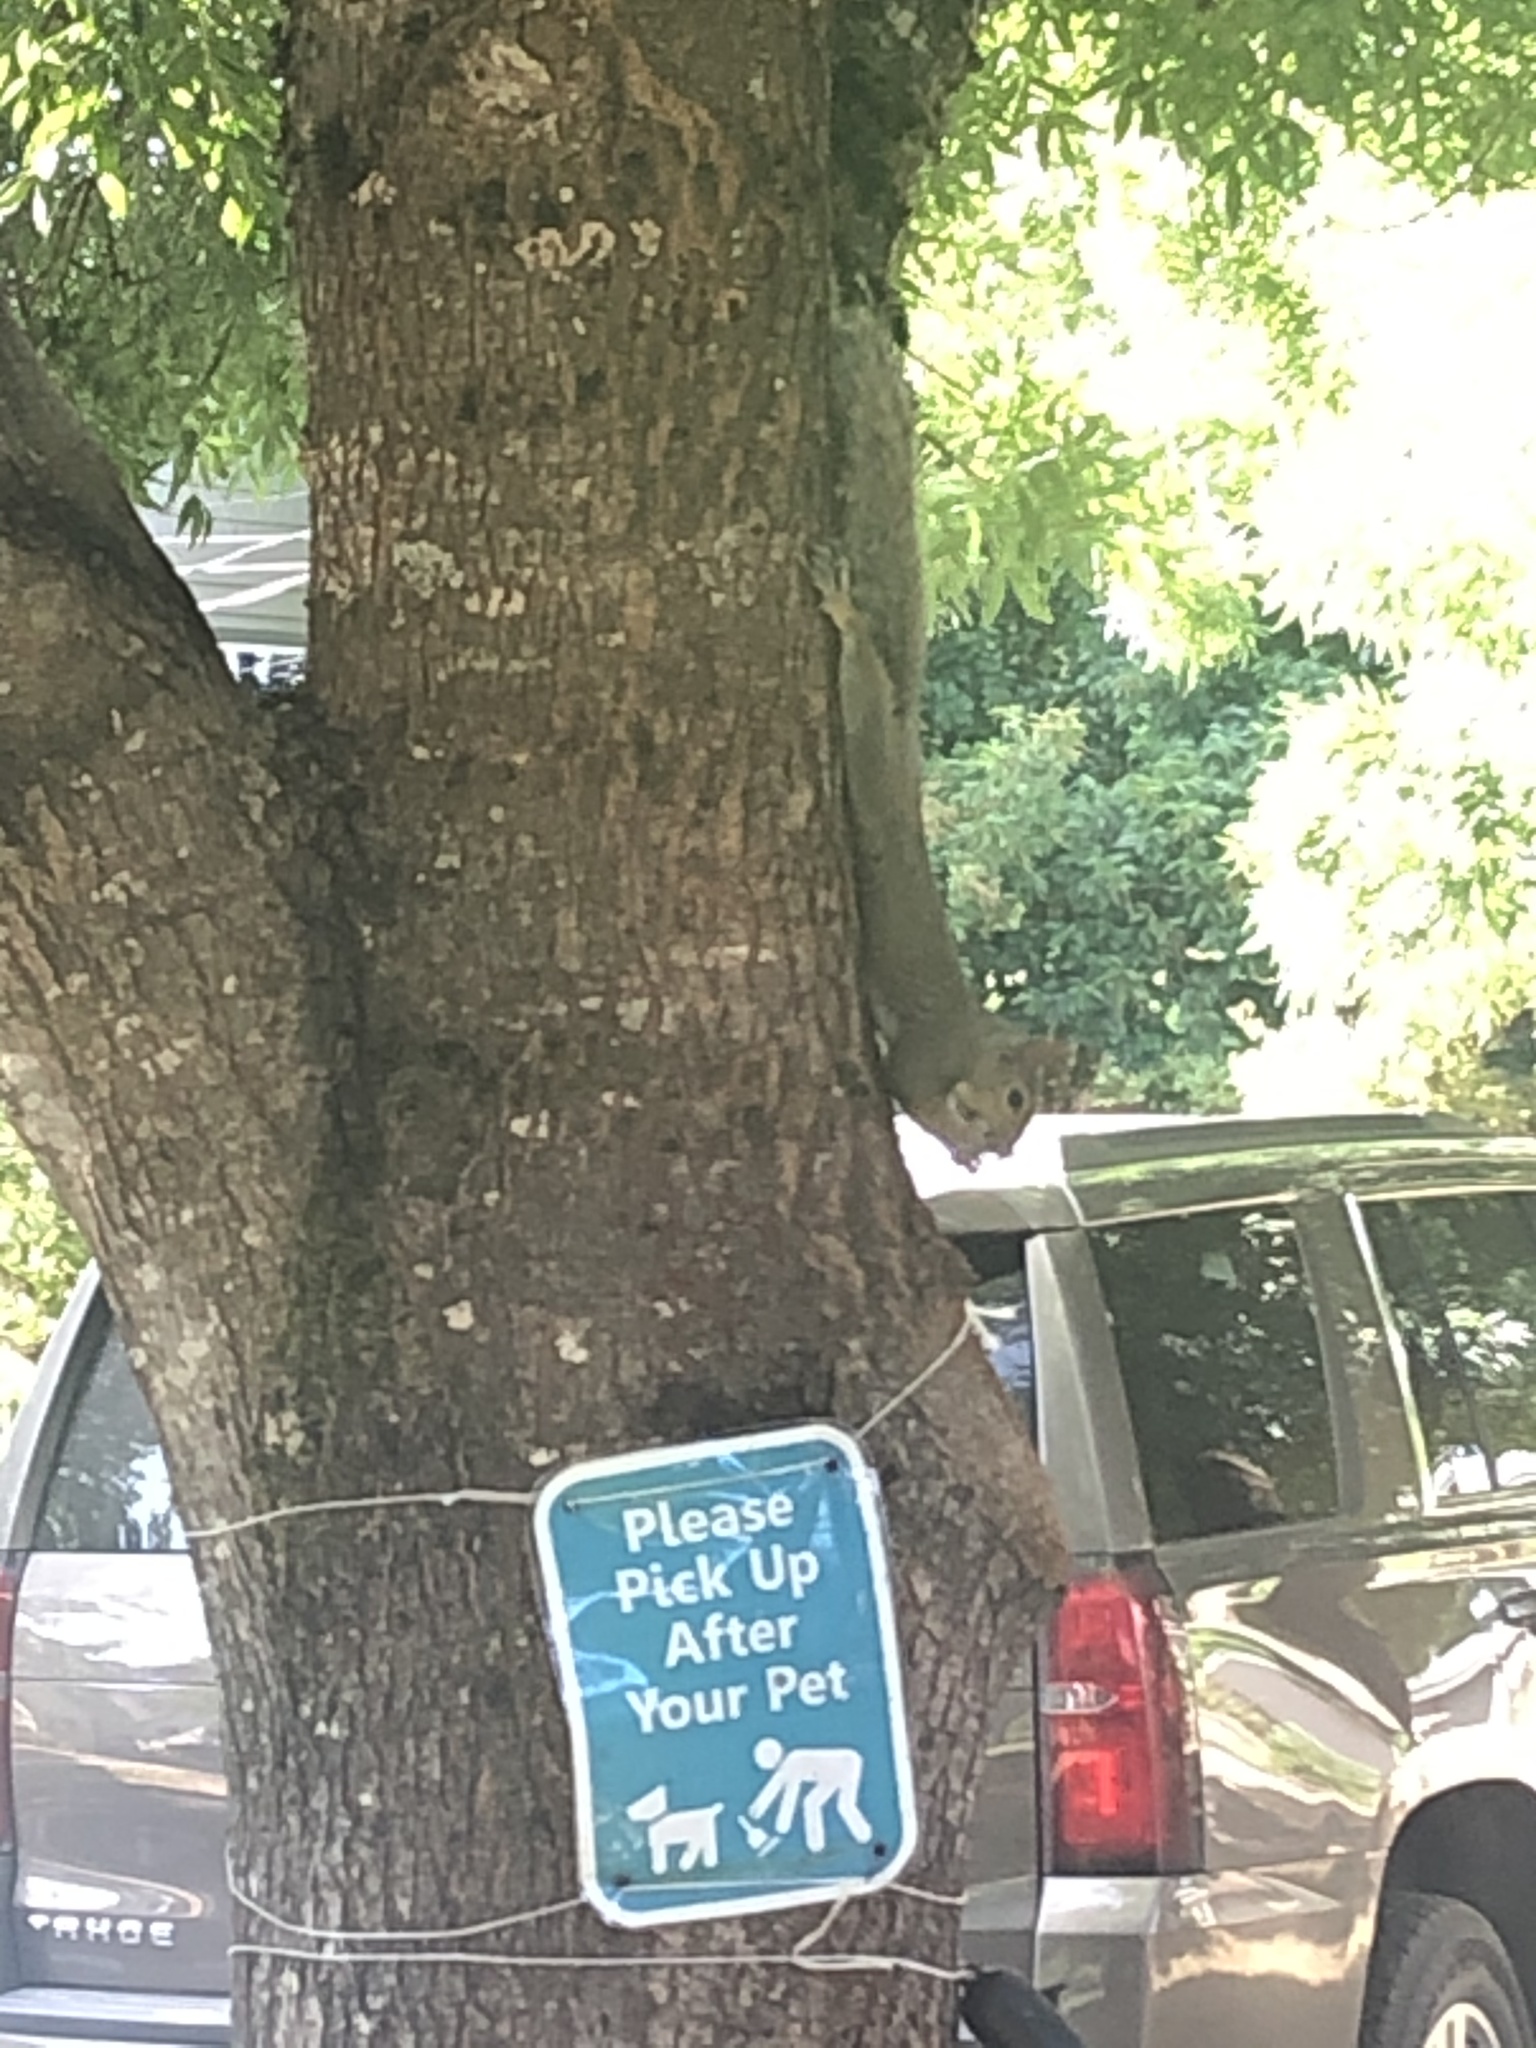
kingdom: Animalia
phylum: Chordata
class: Mammalia
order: Rodentia
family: Sciuridae
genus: Sciurus
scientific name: Sciurus carolinensis
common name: Eastern gray squirrel
